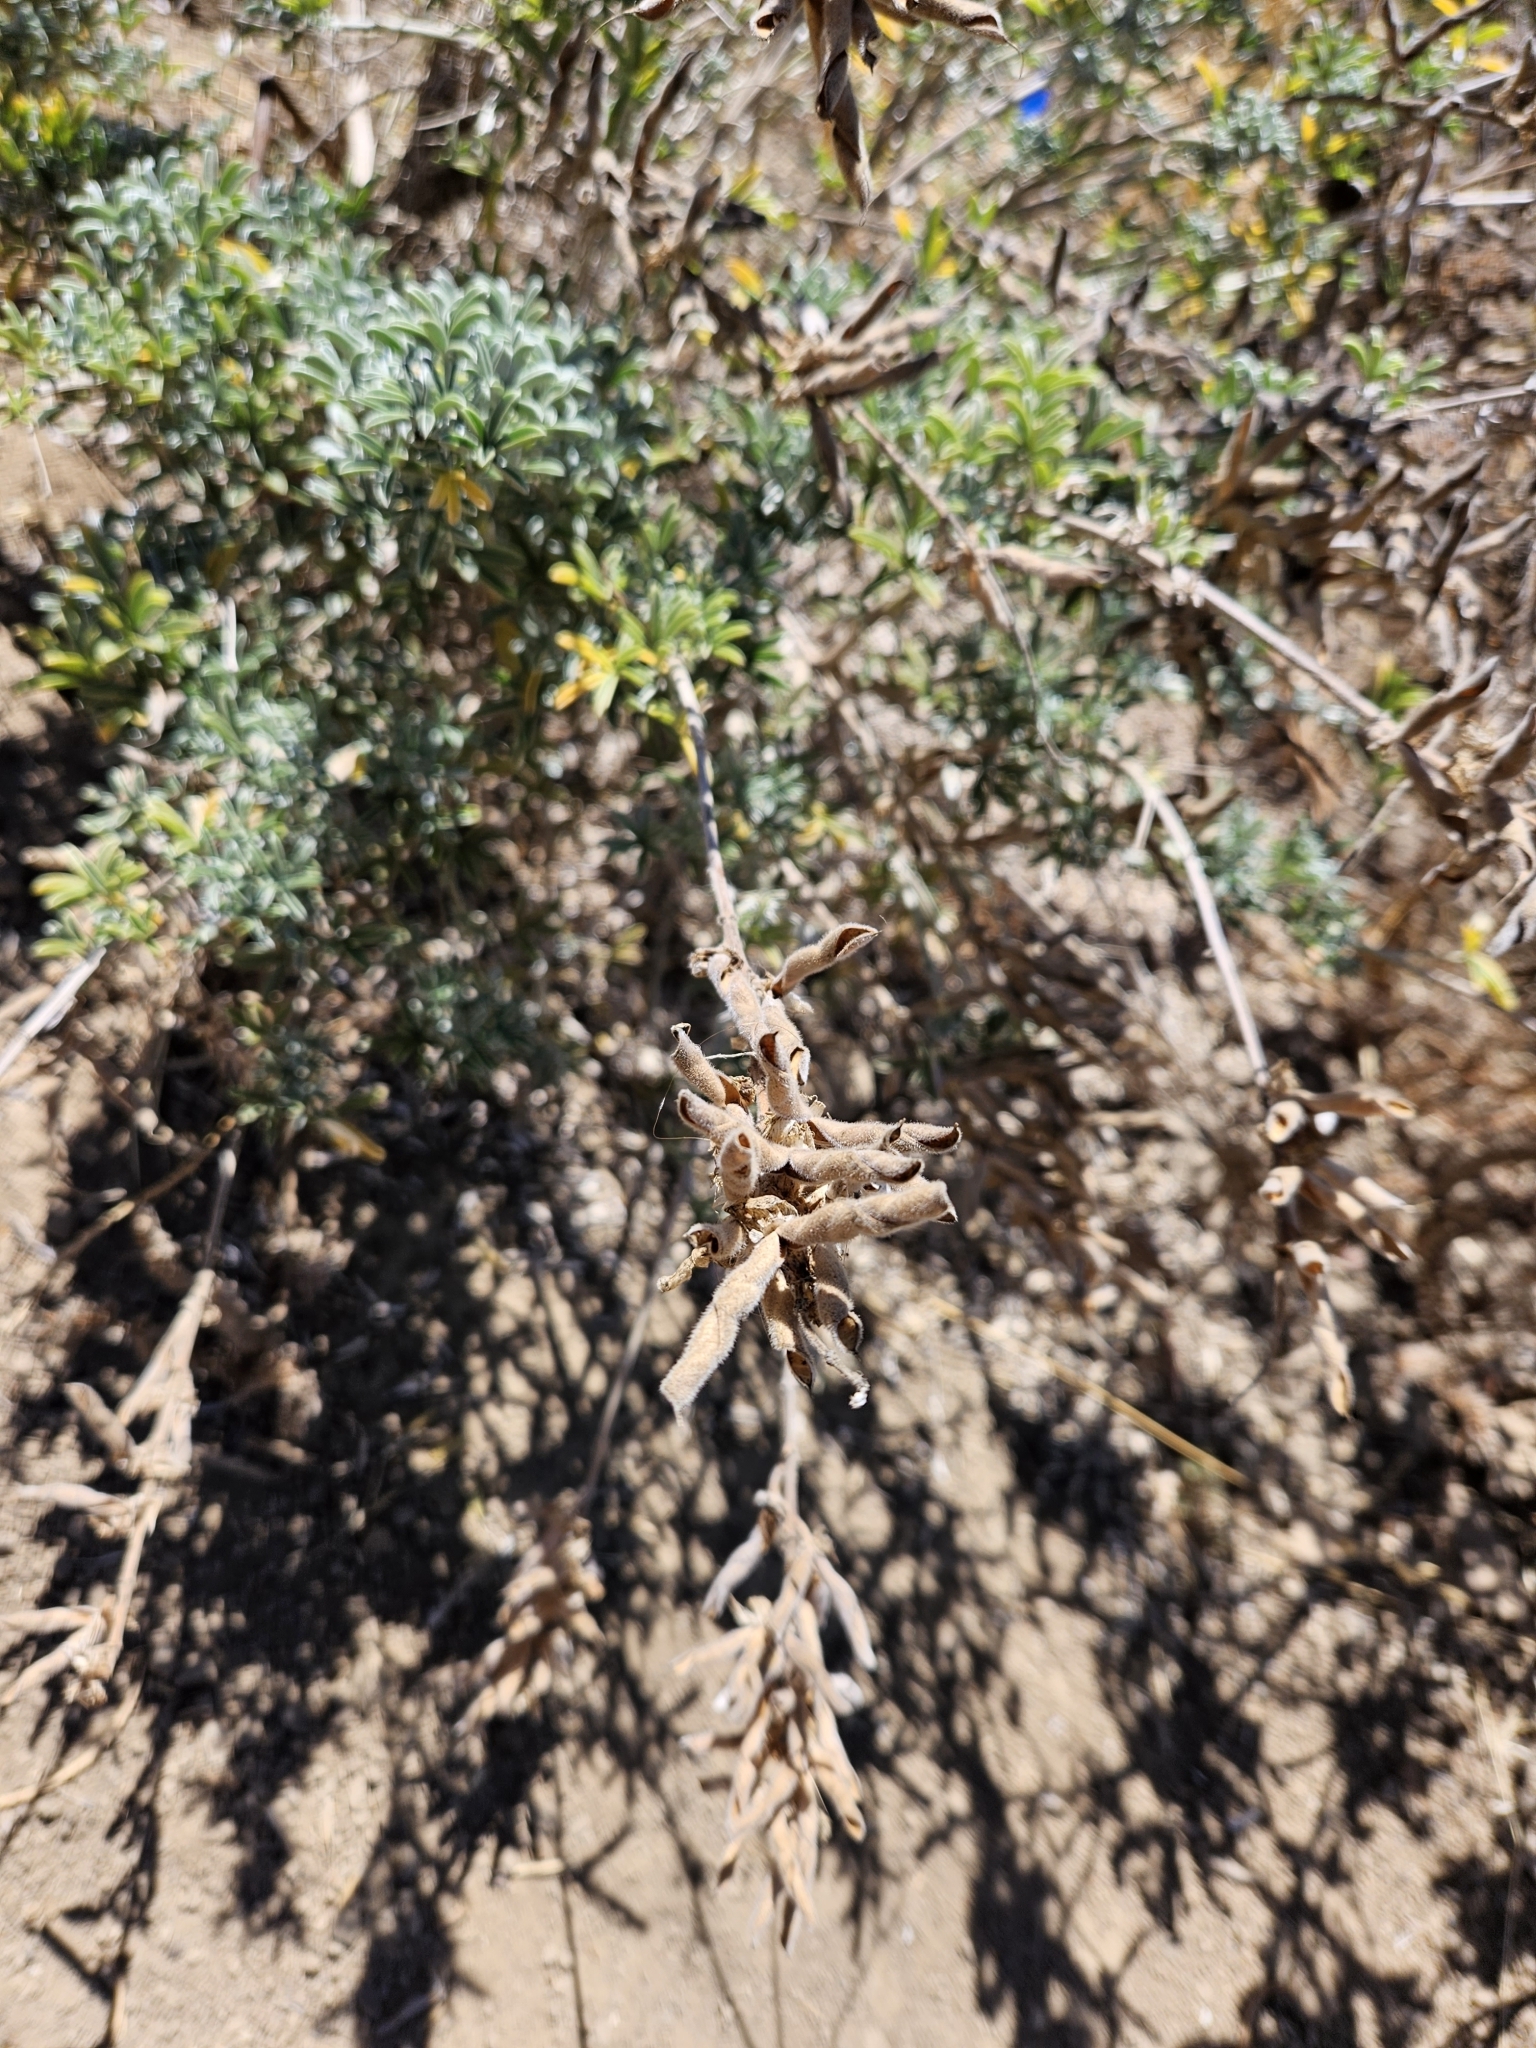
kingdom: Plantae
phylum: Tracheophyta
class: Magnoliopsida
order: Fabales
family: Fabaceae
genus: Lupinus
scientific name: Lupinus albifrons
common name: Foothill lupine
